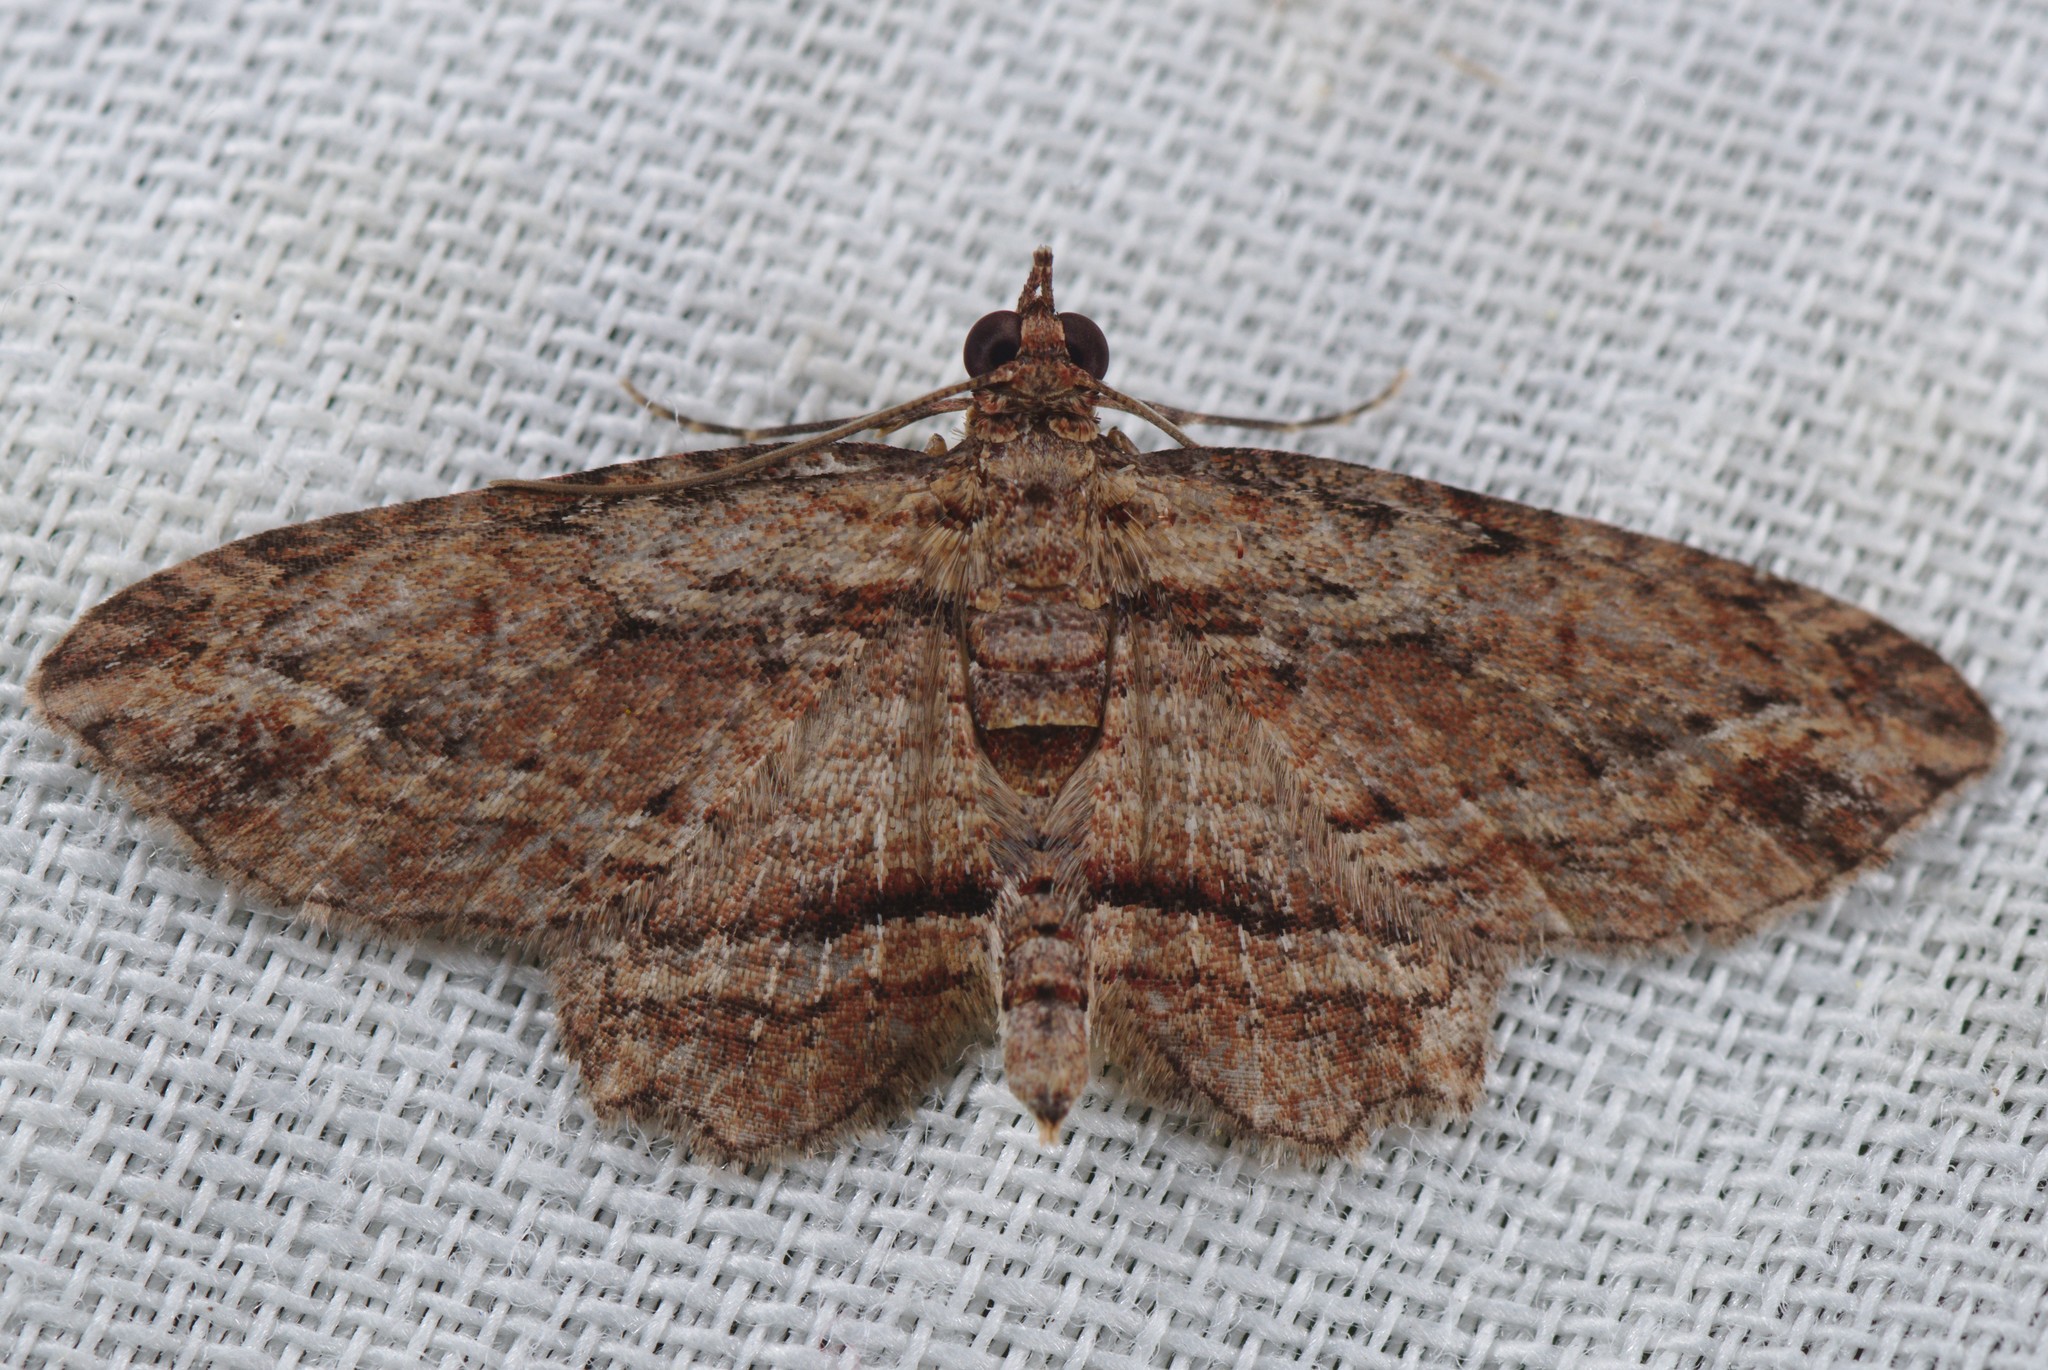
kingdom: Animalia
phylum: Arthropoda
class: Insecta
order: Lepidoptera
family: Geometridae
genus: Chloroclystis
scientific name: Chloroclystis filata
